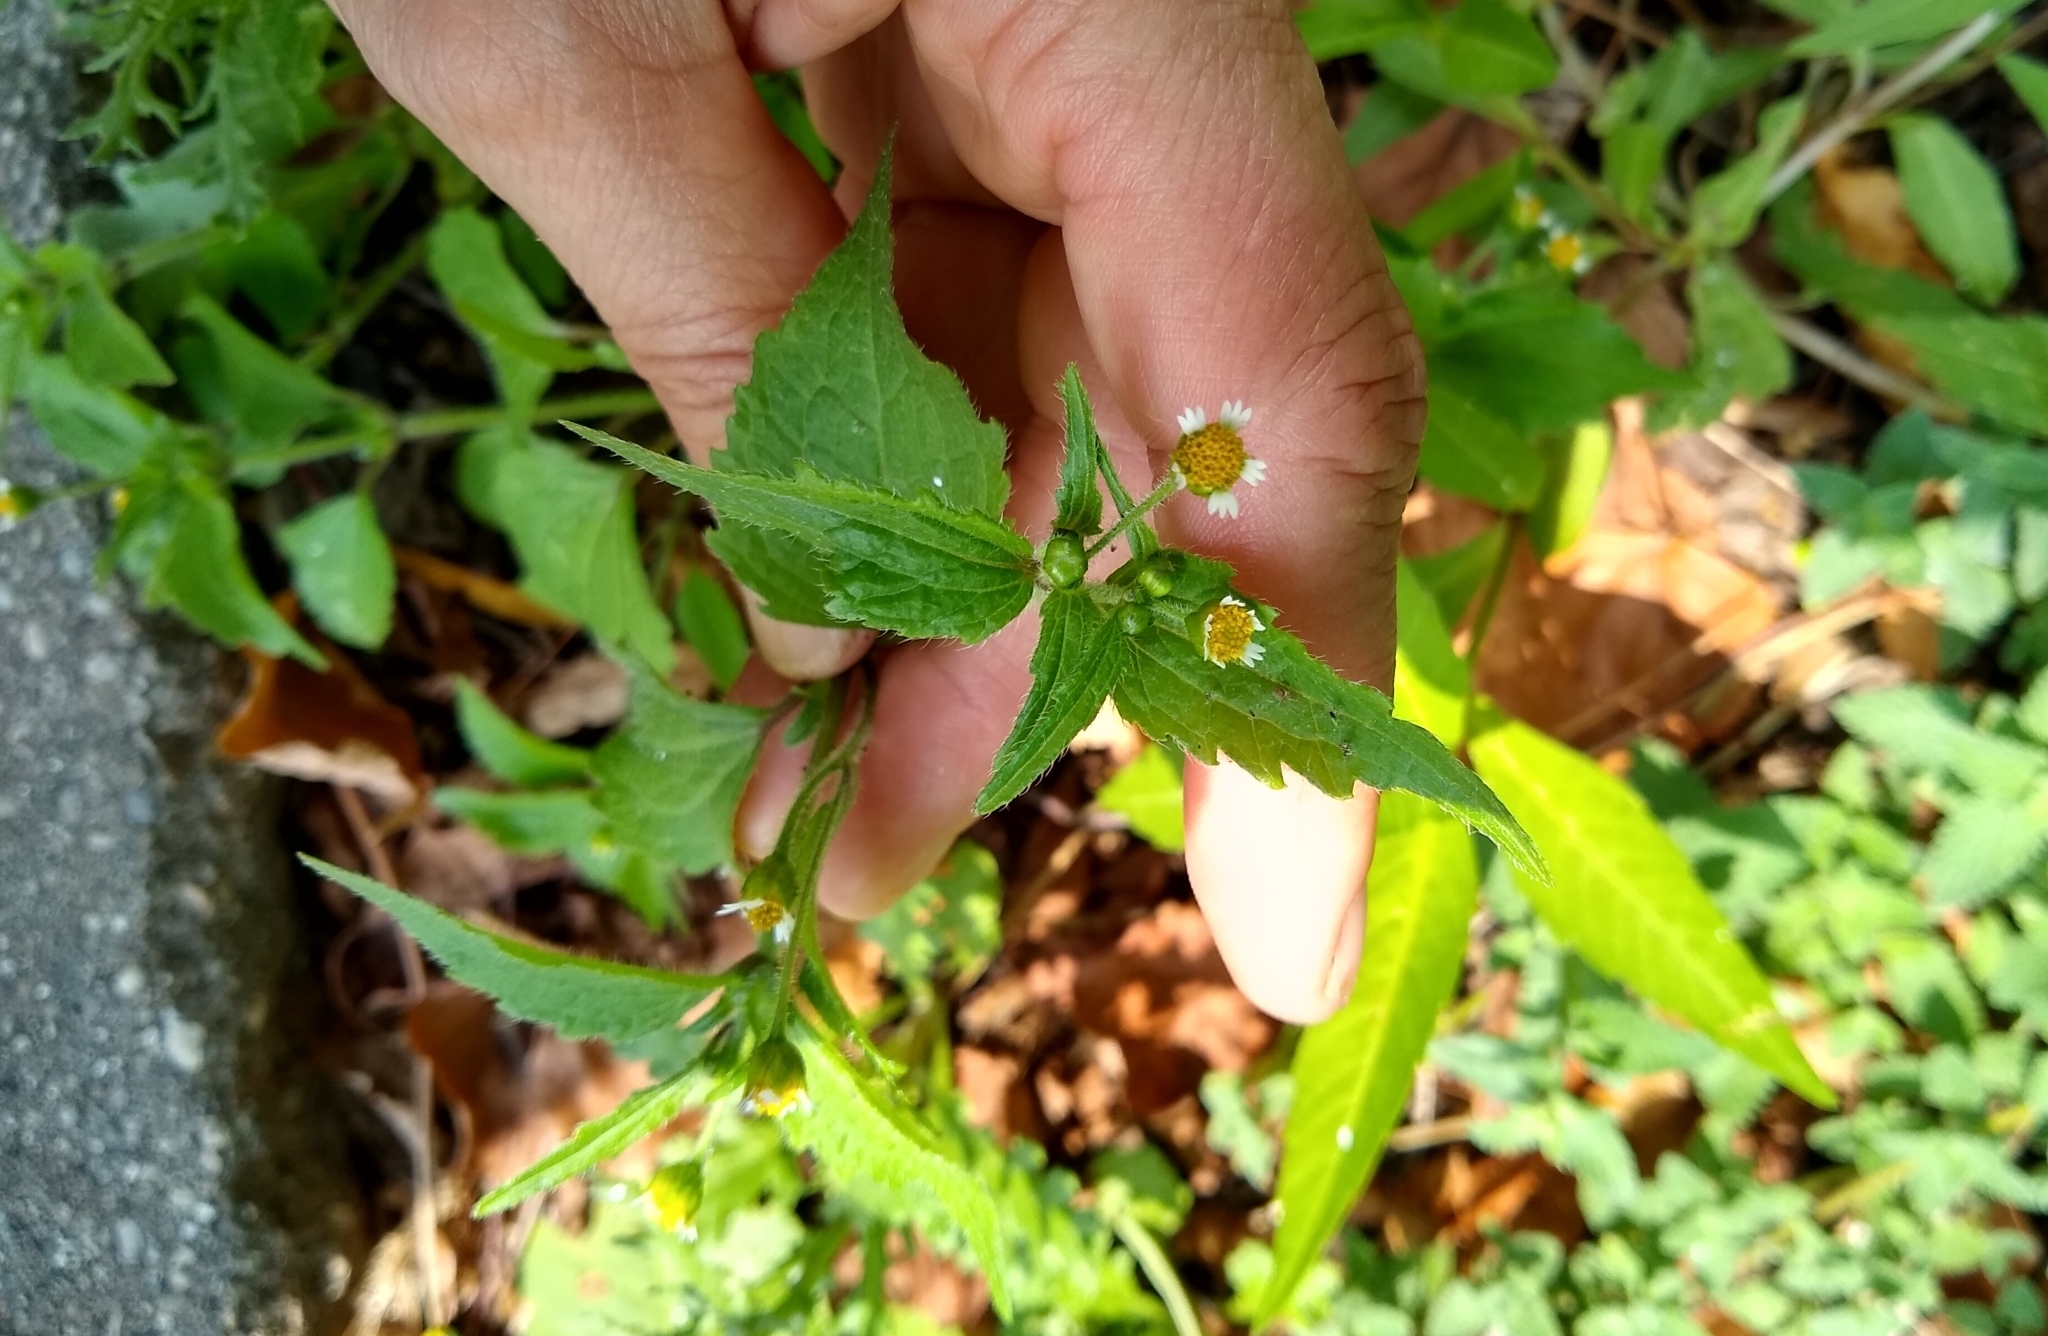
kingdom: Plantae
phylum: Tracheophyta
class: Magnoliopsida
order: Asterales
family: Asteraceae
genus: Galinsoga
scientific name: Galinsoga quadriradiata
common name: Shaggy soldier
